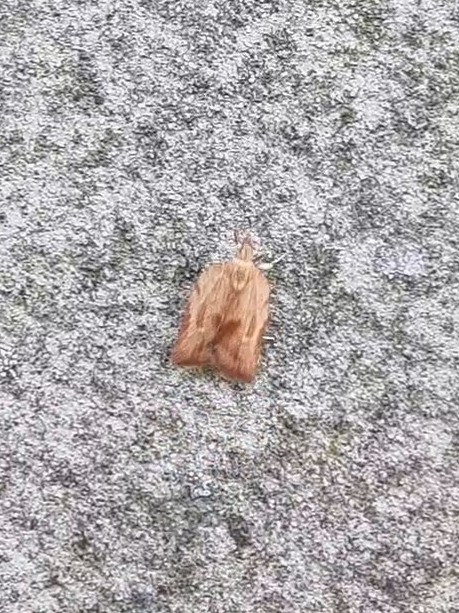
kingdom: Animalia
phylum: Arthropoda
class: Insecta
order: Lepidoptera
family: Tortricidae
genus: Epiphyas
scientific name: Epiphyas postvittana
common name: Light brown apple moth
